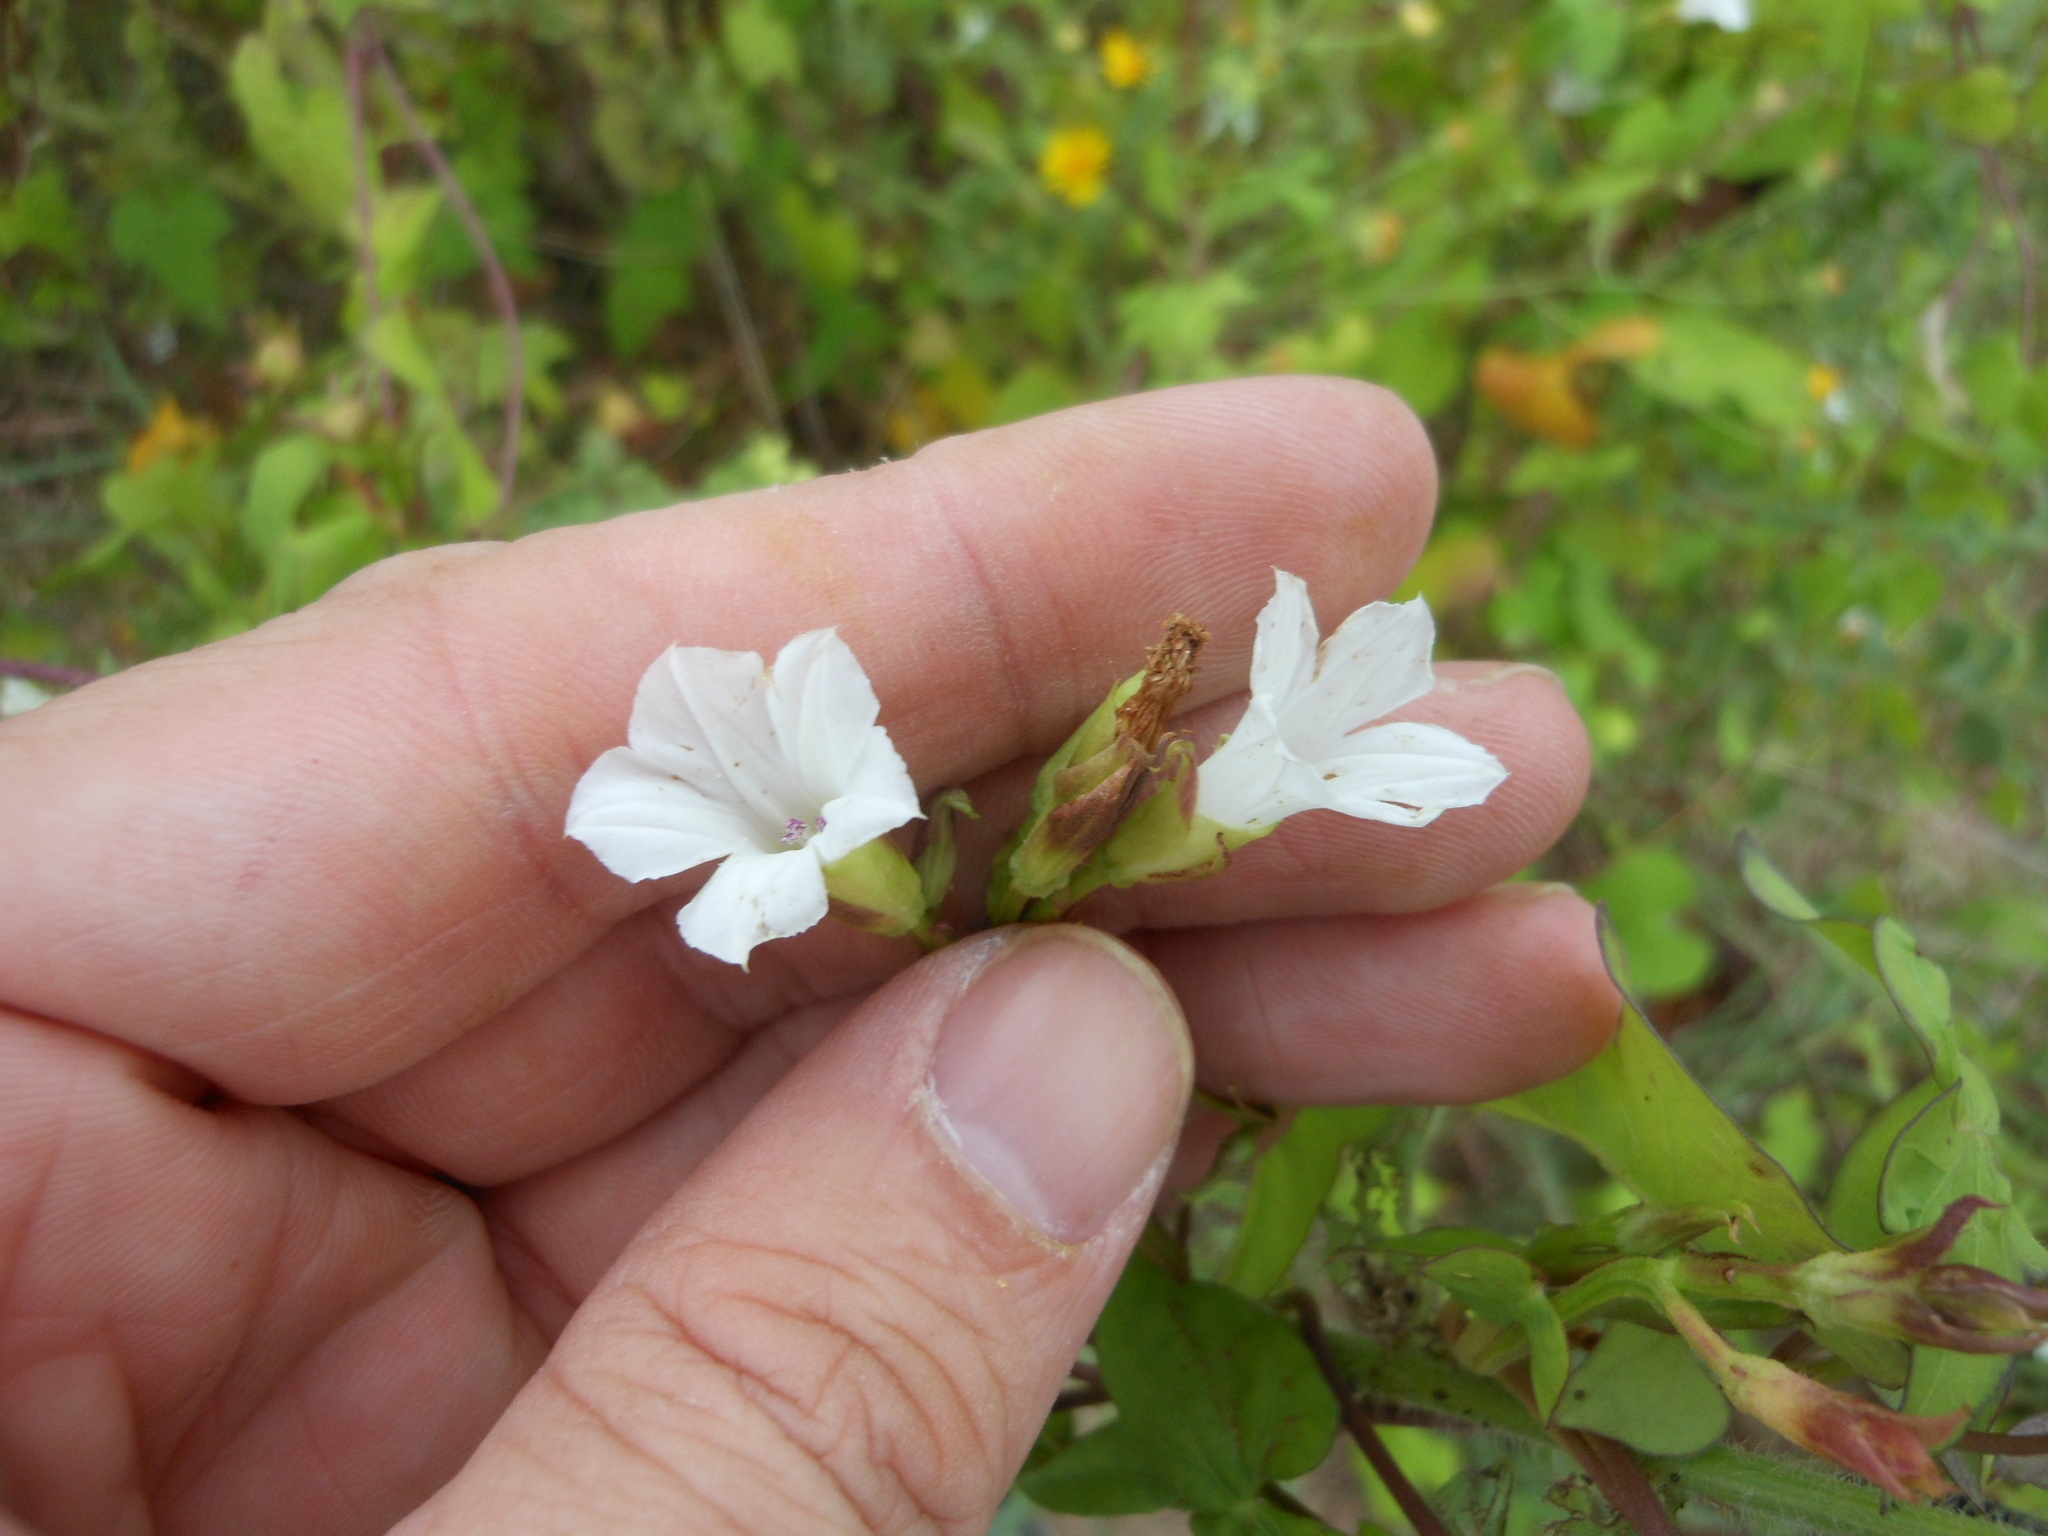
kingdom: Plantae
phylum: Tracheophyta
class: Magnoliopsida
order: Solanales
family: Convolvulaceae
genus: Ipomoea
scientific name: Ipomoea lacunosa
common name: White morning-glory
